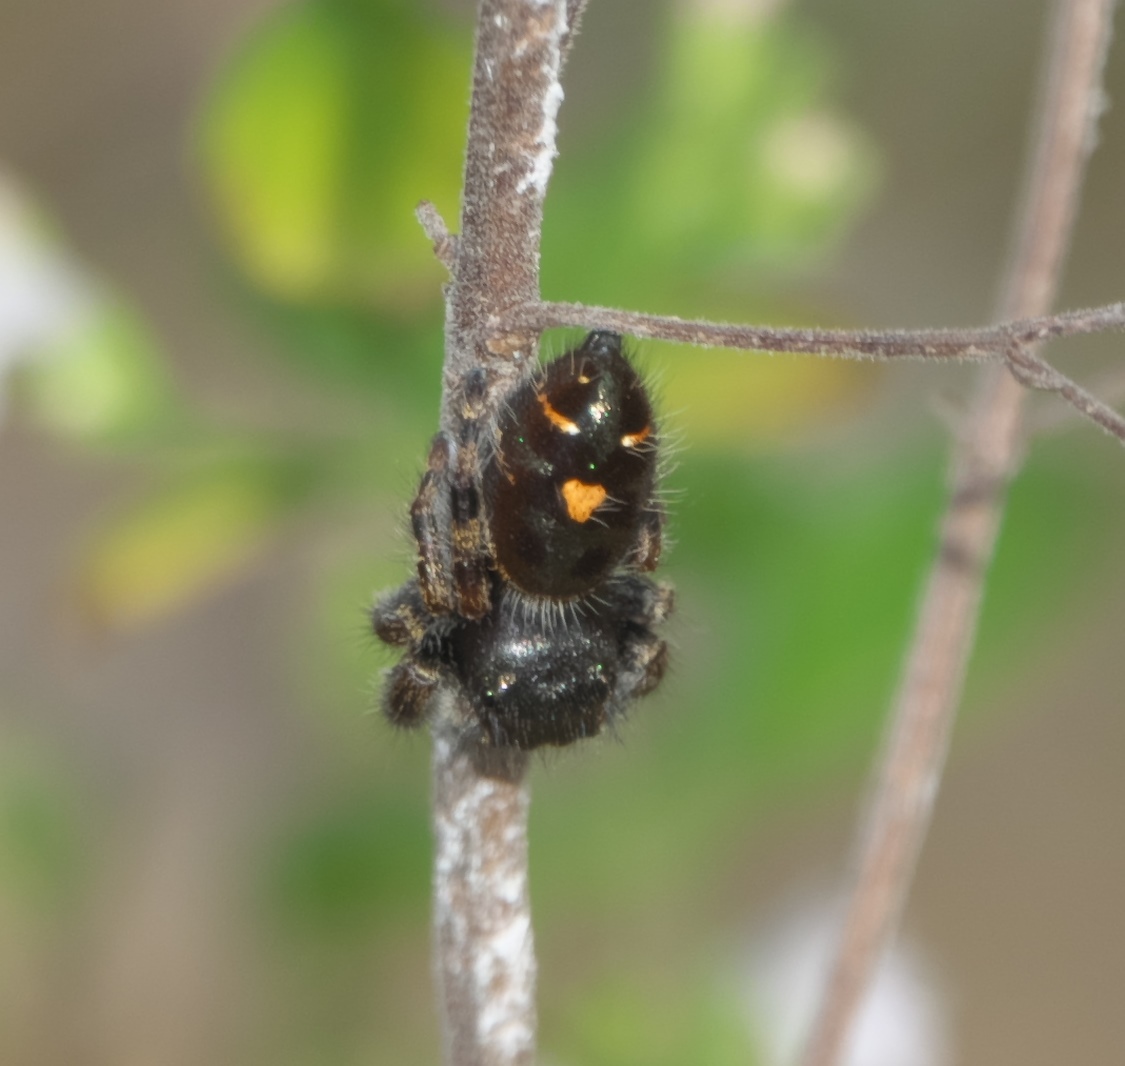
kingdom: Animalia
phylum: Arthropoda
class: Arachnida
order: Araneae
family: Salticidae
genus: Phidippus
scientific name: Phidippus audax
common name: Bold jumper
